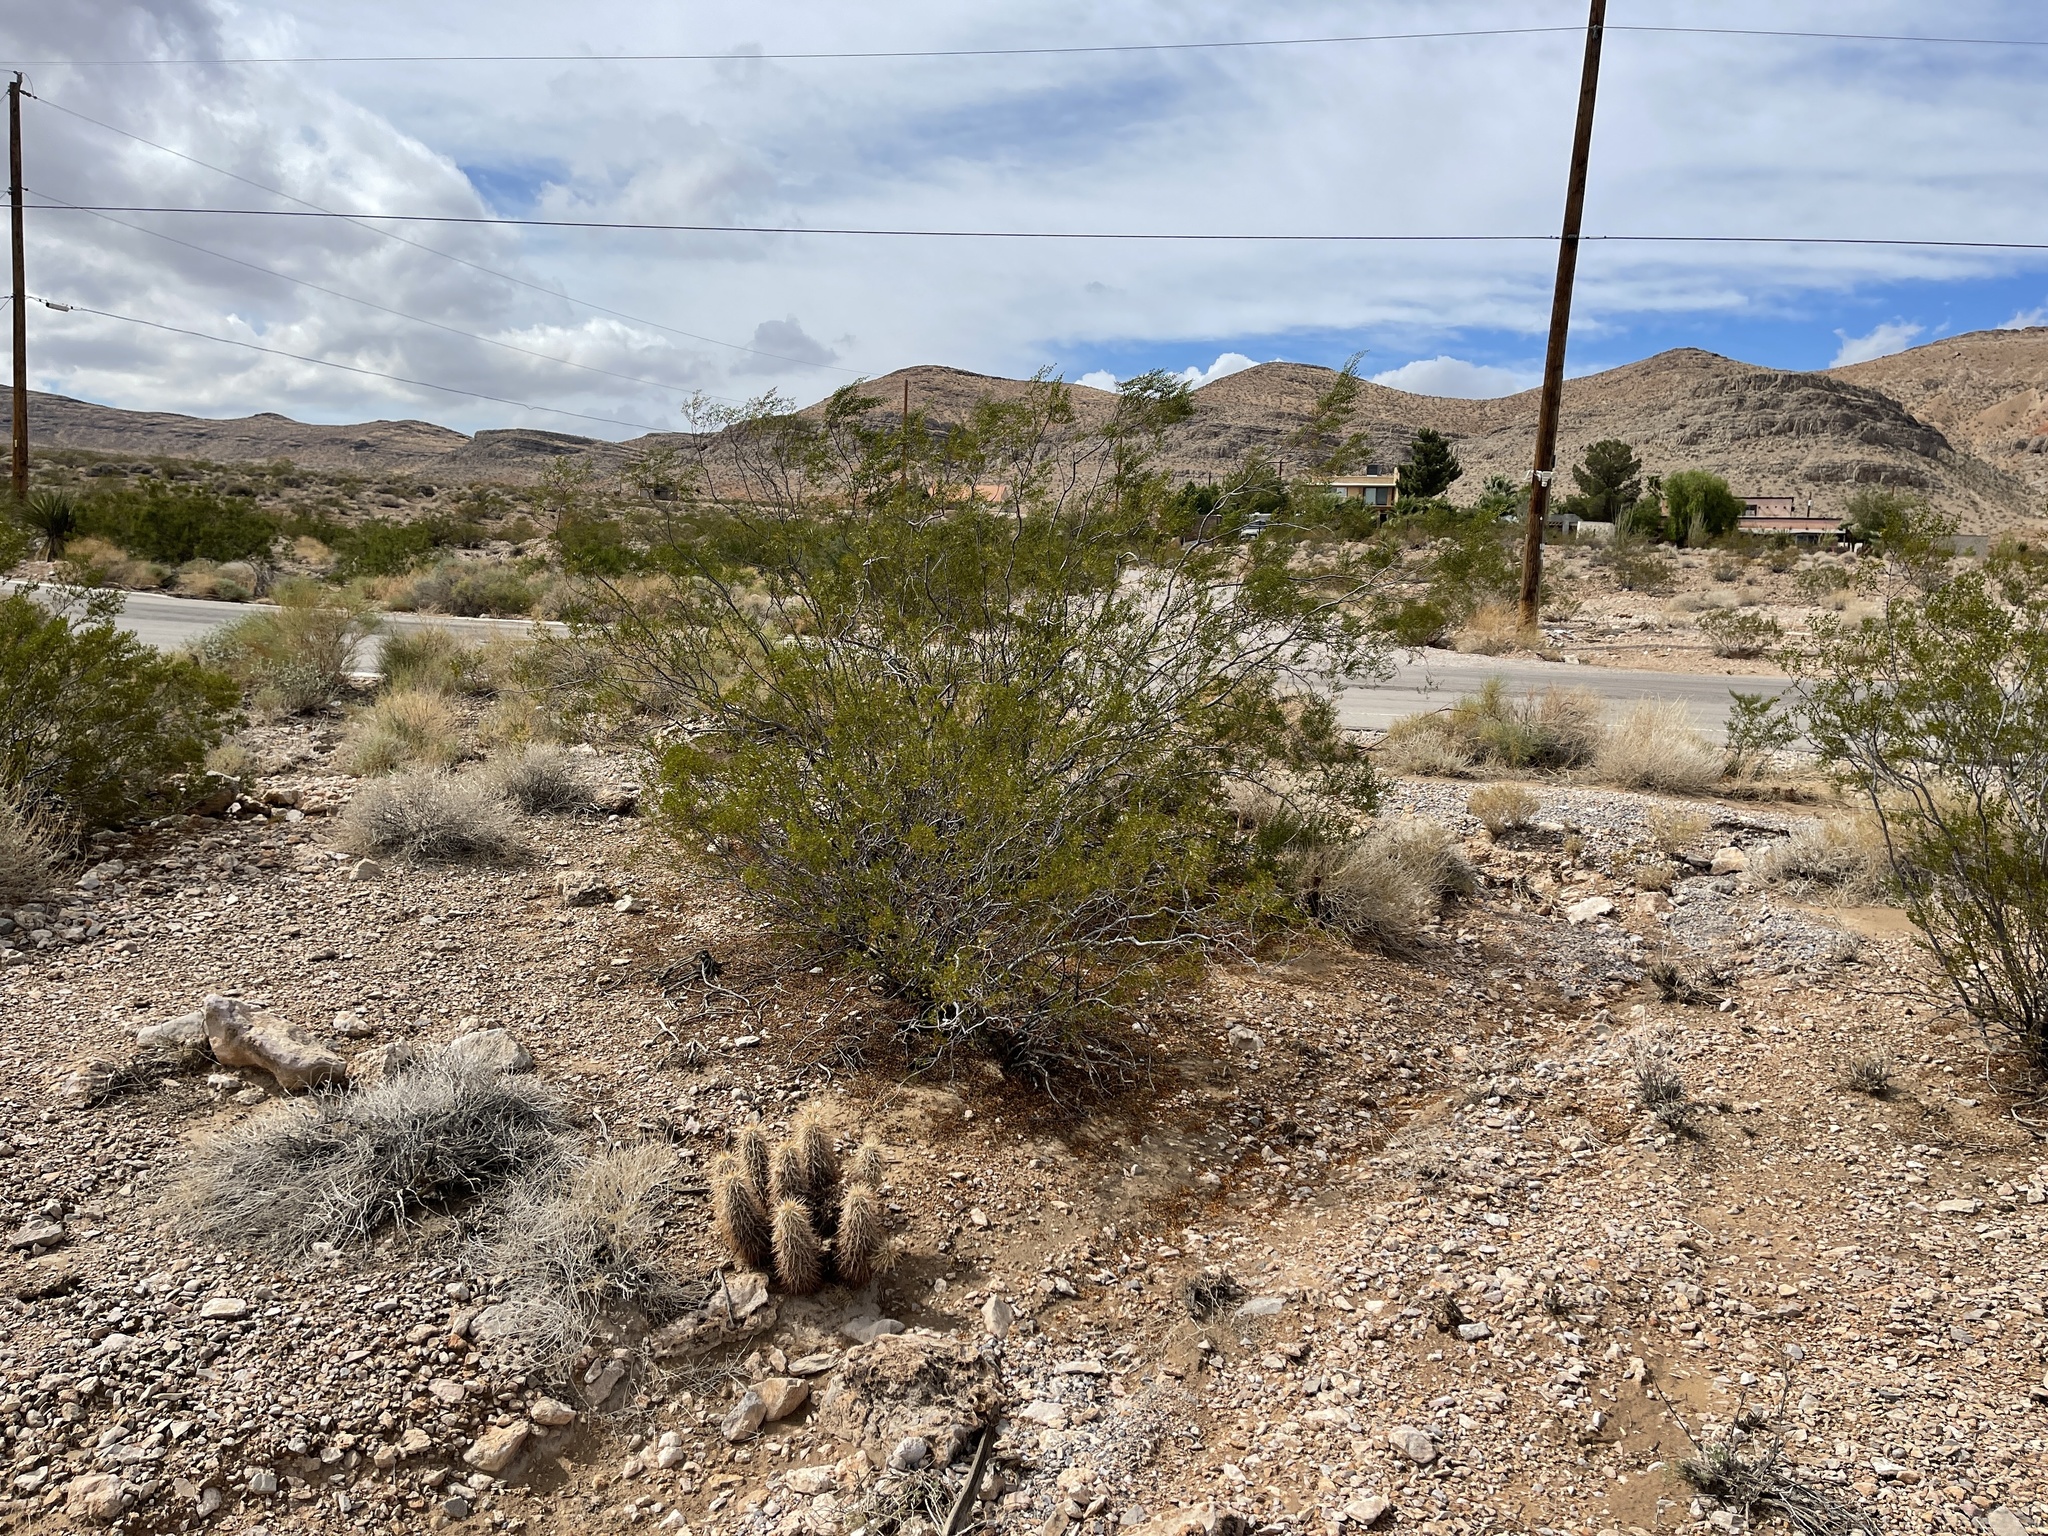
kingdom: Plantae
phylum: Tracheophyta
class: Magnoliopsida
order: Zygophyllales
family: Zygophyllaceae
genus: Larrea
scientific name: Larrea tridentata
